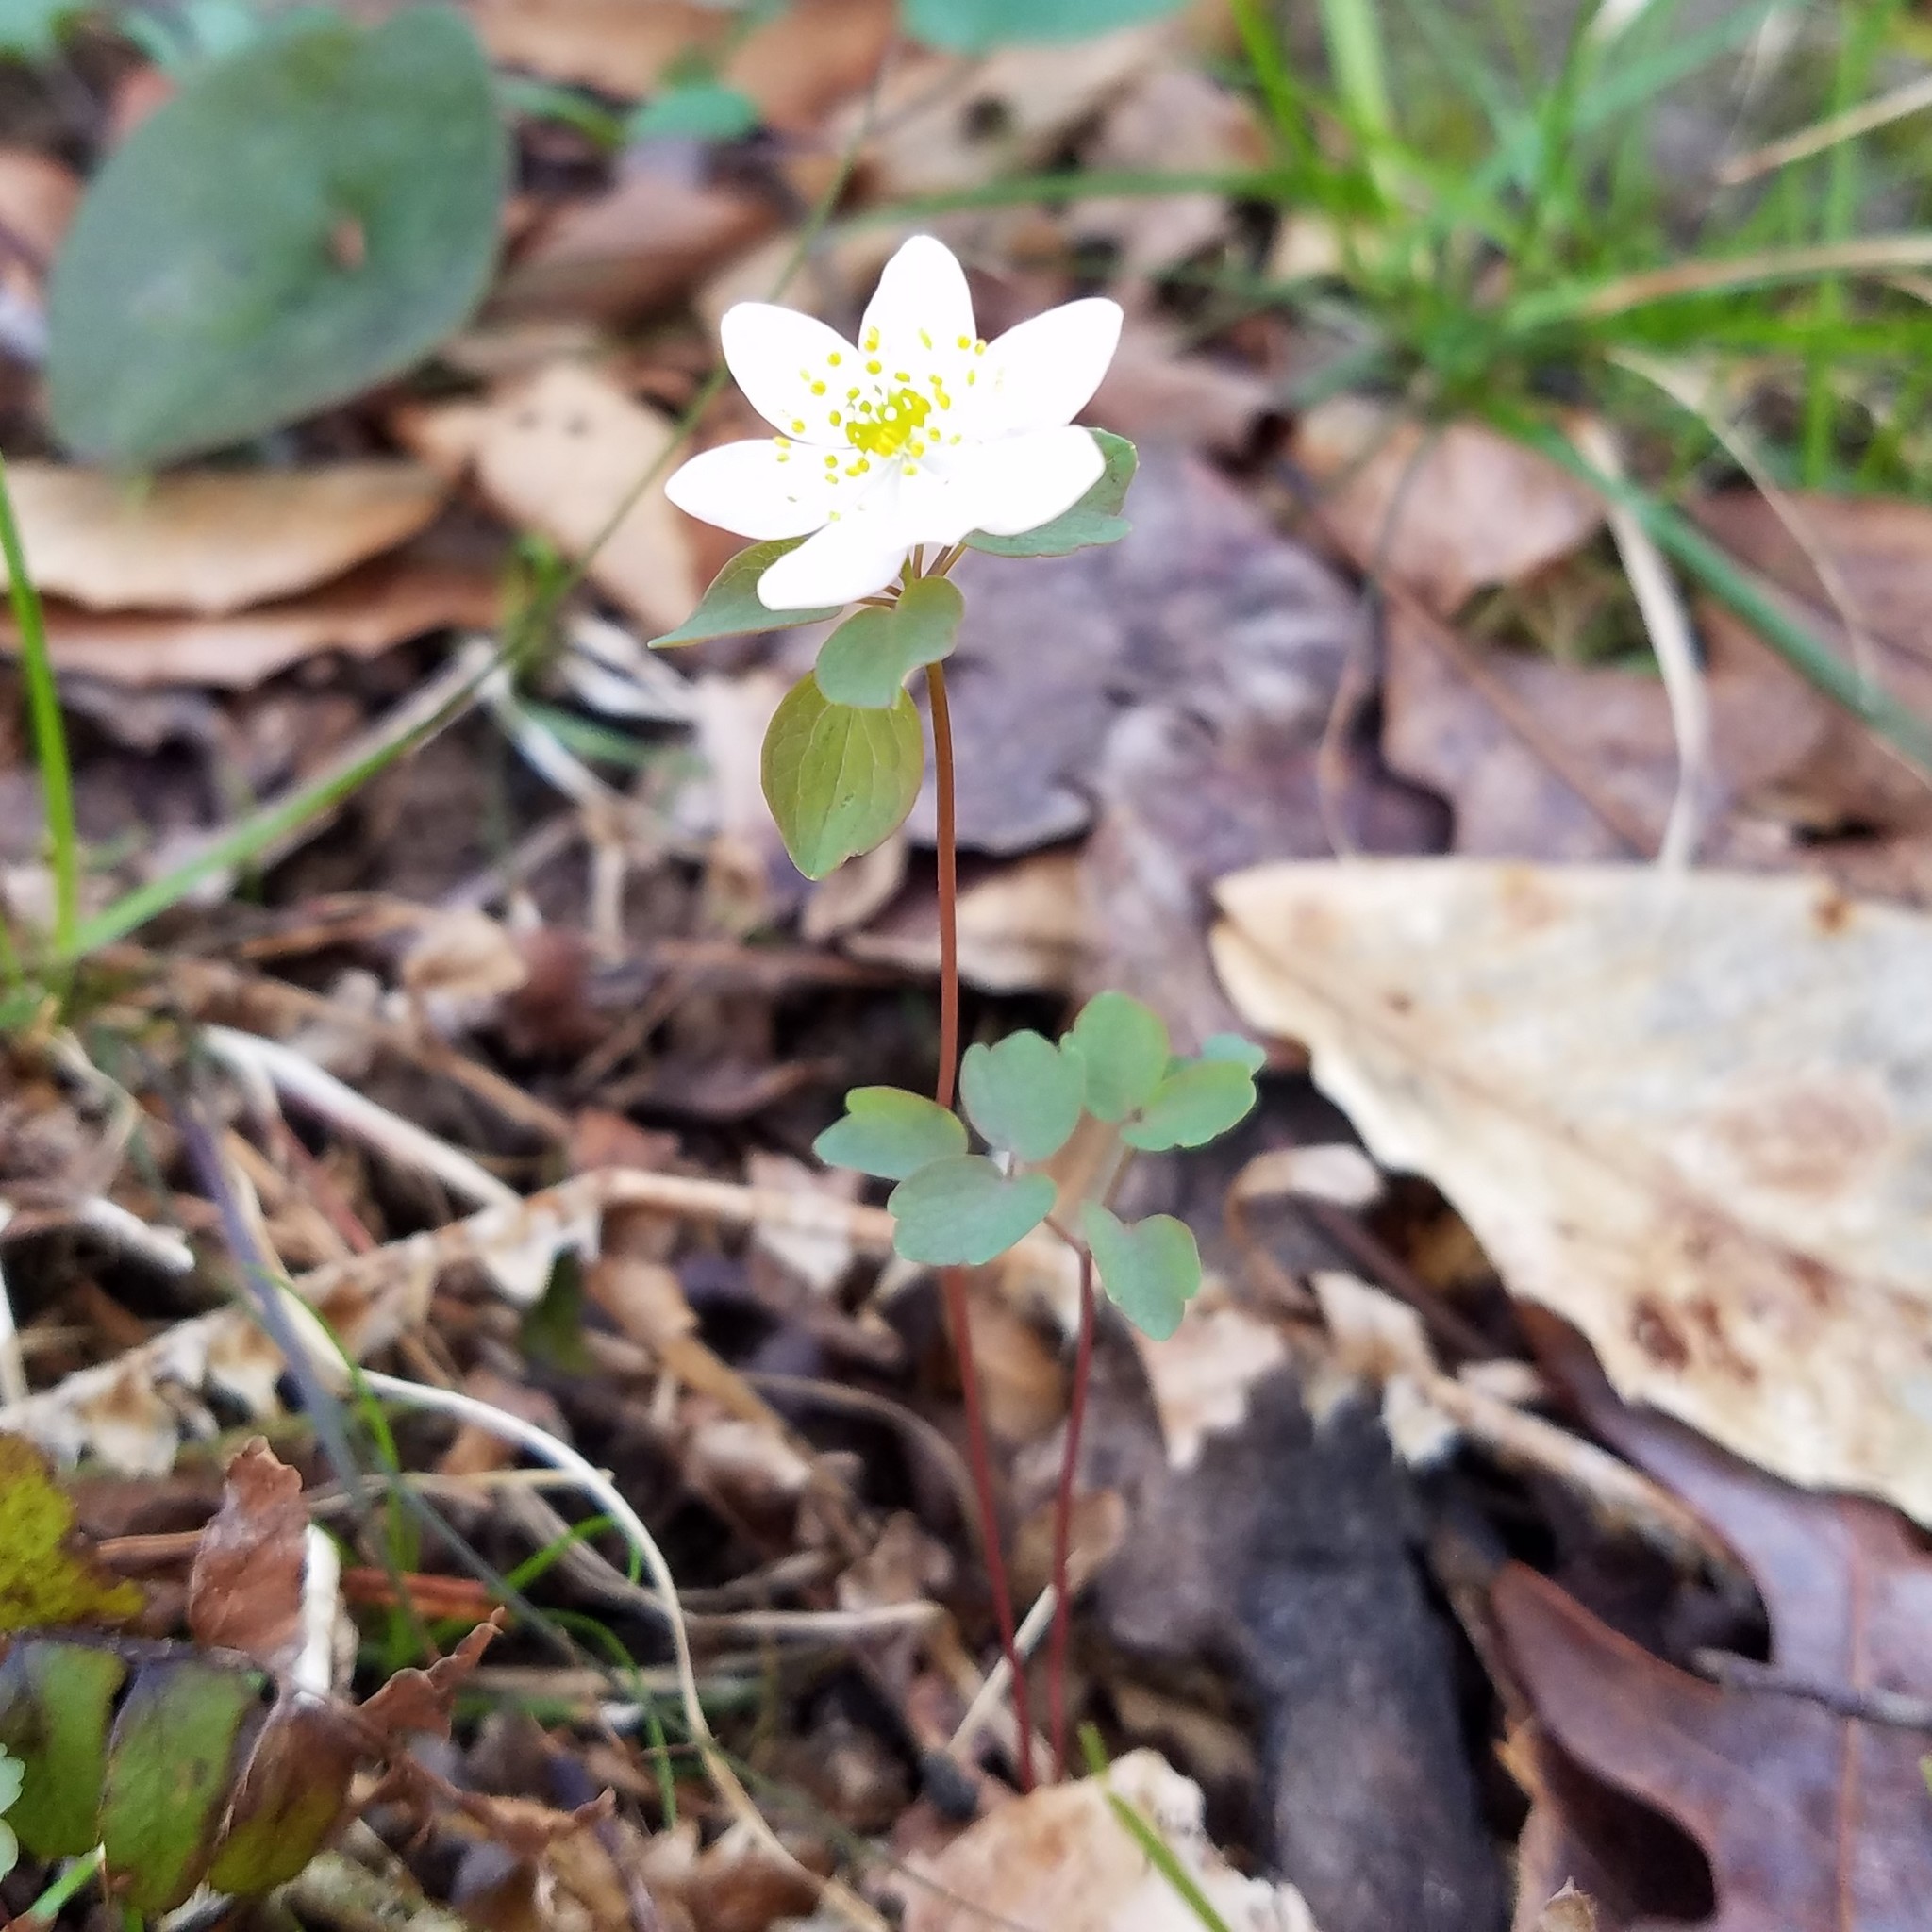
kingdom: Plantae
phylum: Tracheophyta
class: Magnoliopsida
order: Ranunculales
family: Ranunculaceae
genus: Thalictrum
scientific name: Thalictrum thalictroides
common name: Rue-anemone
